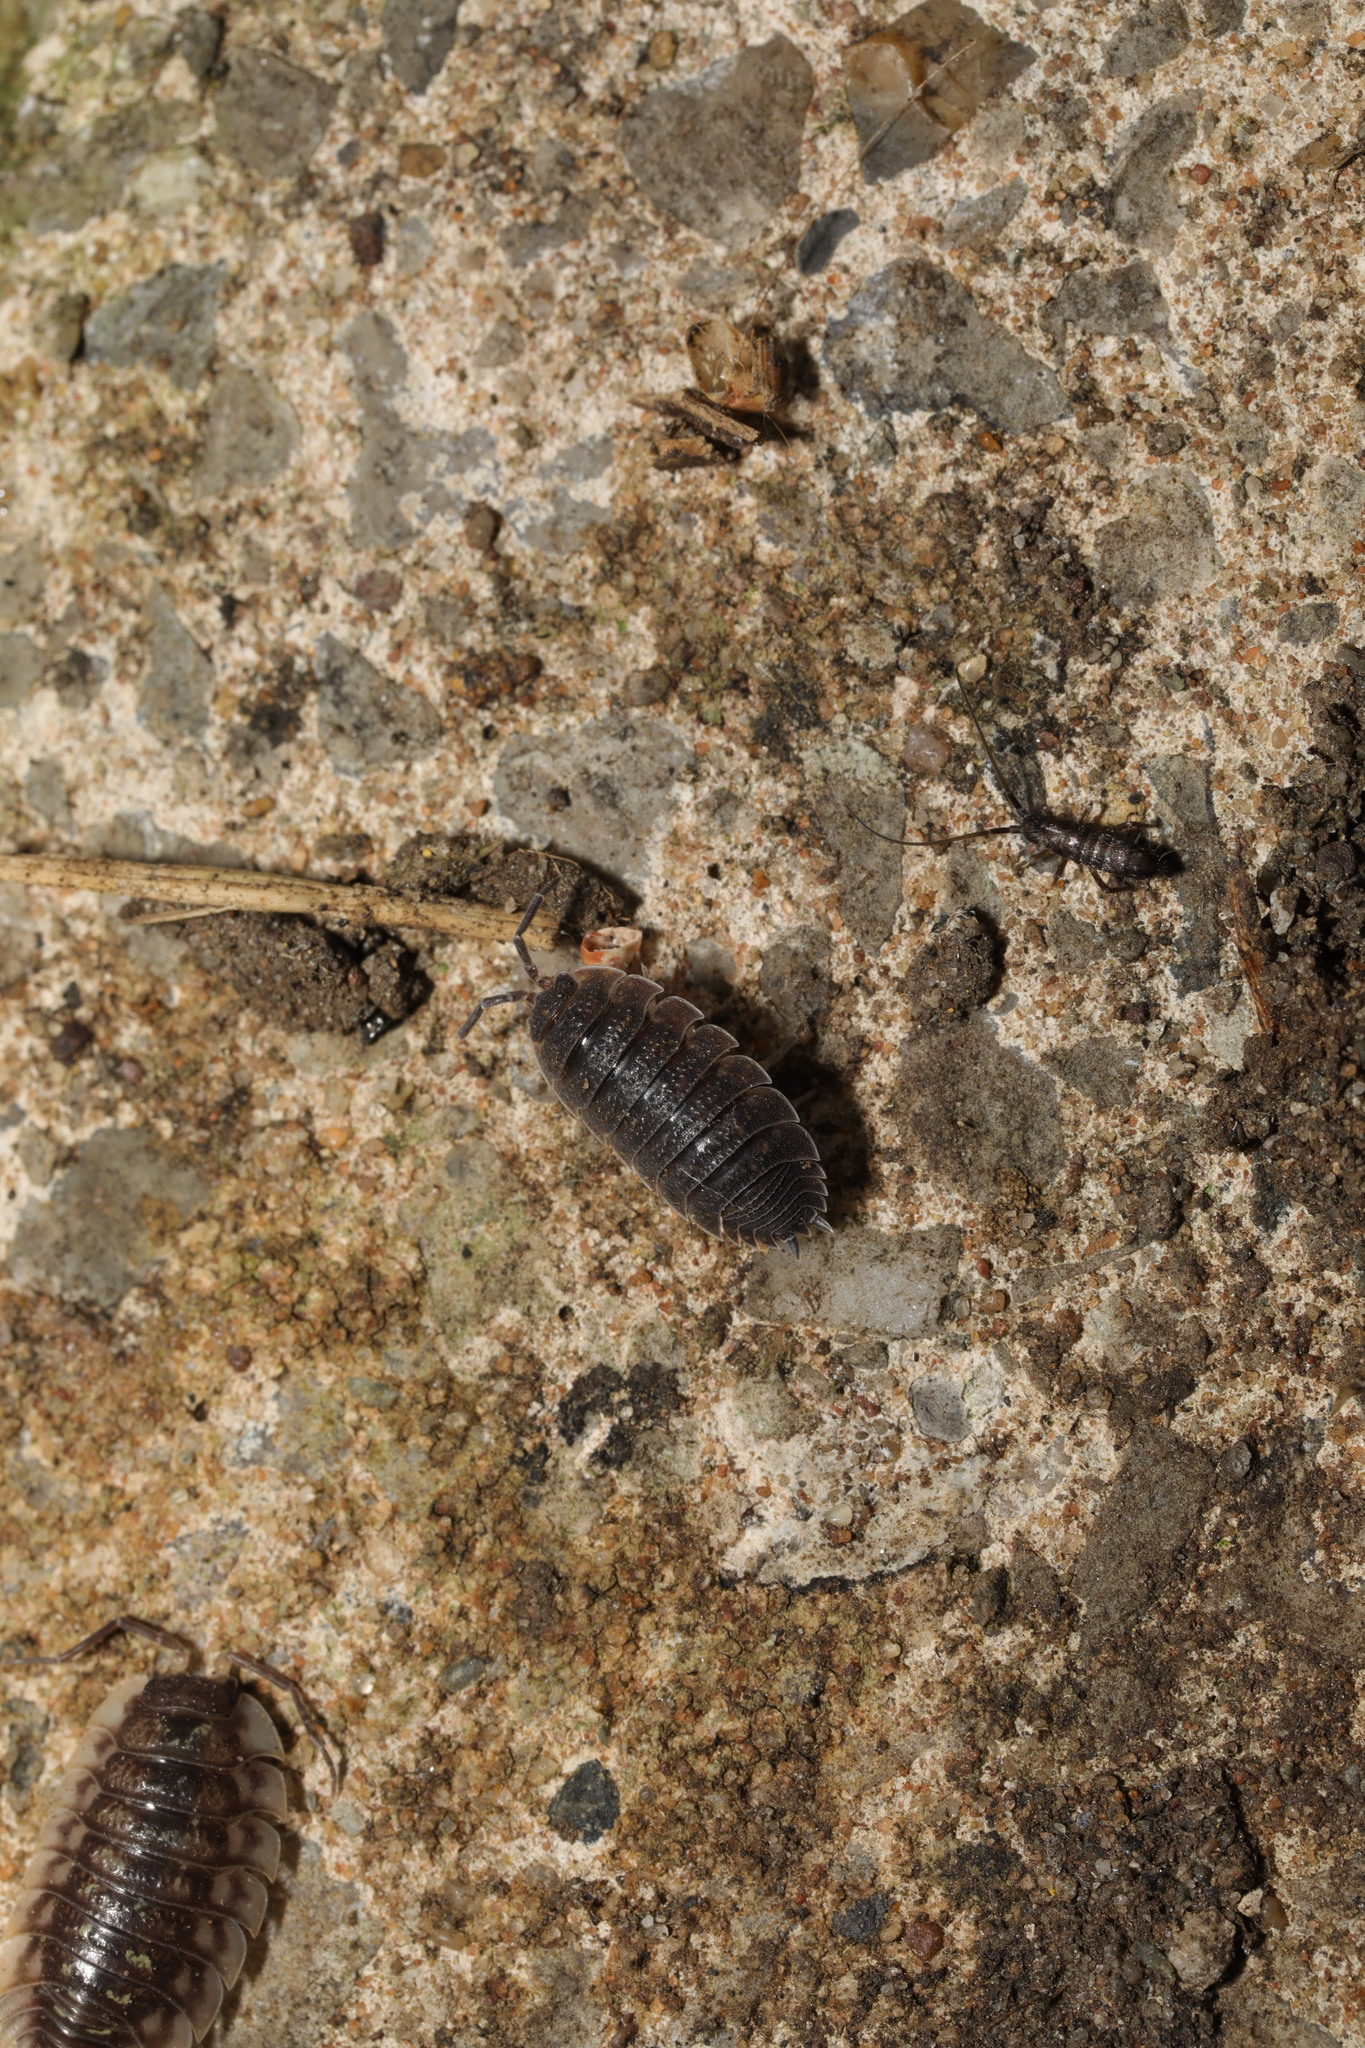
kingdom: Animalia
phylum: Arthropoda
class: Malacostraca
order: Isopoda
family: Porcellionidae
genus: Porcellio
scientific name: Porcellio scaber
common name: Common rough woodlouse
